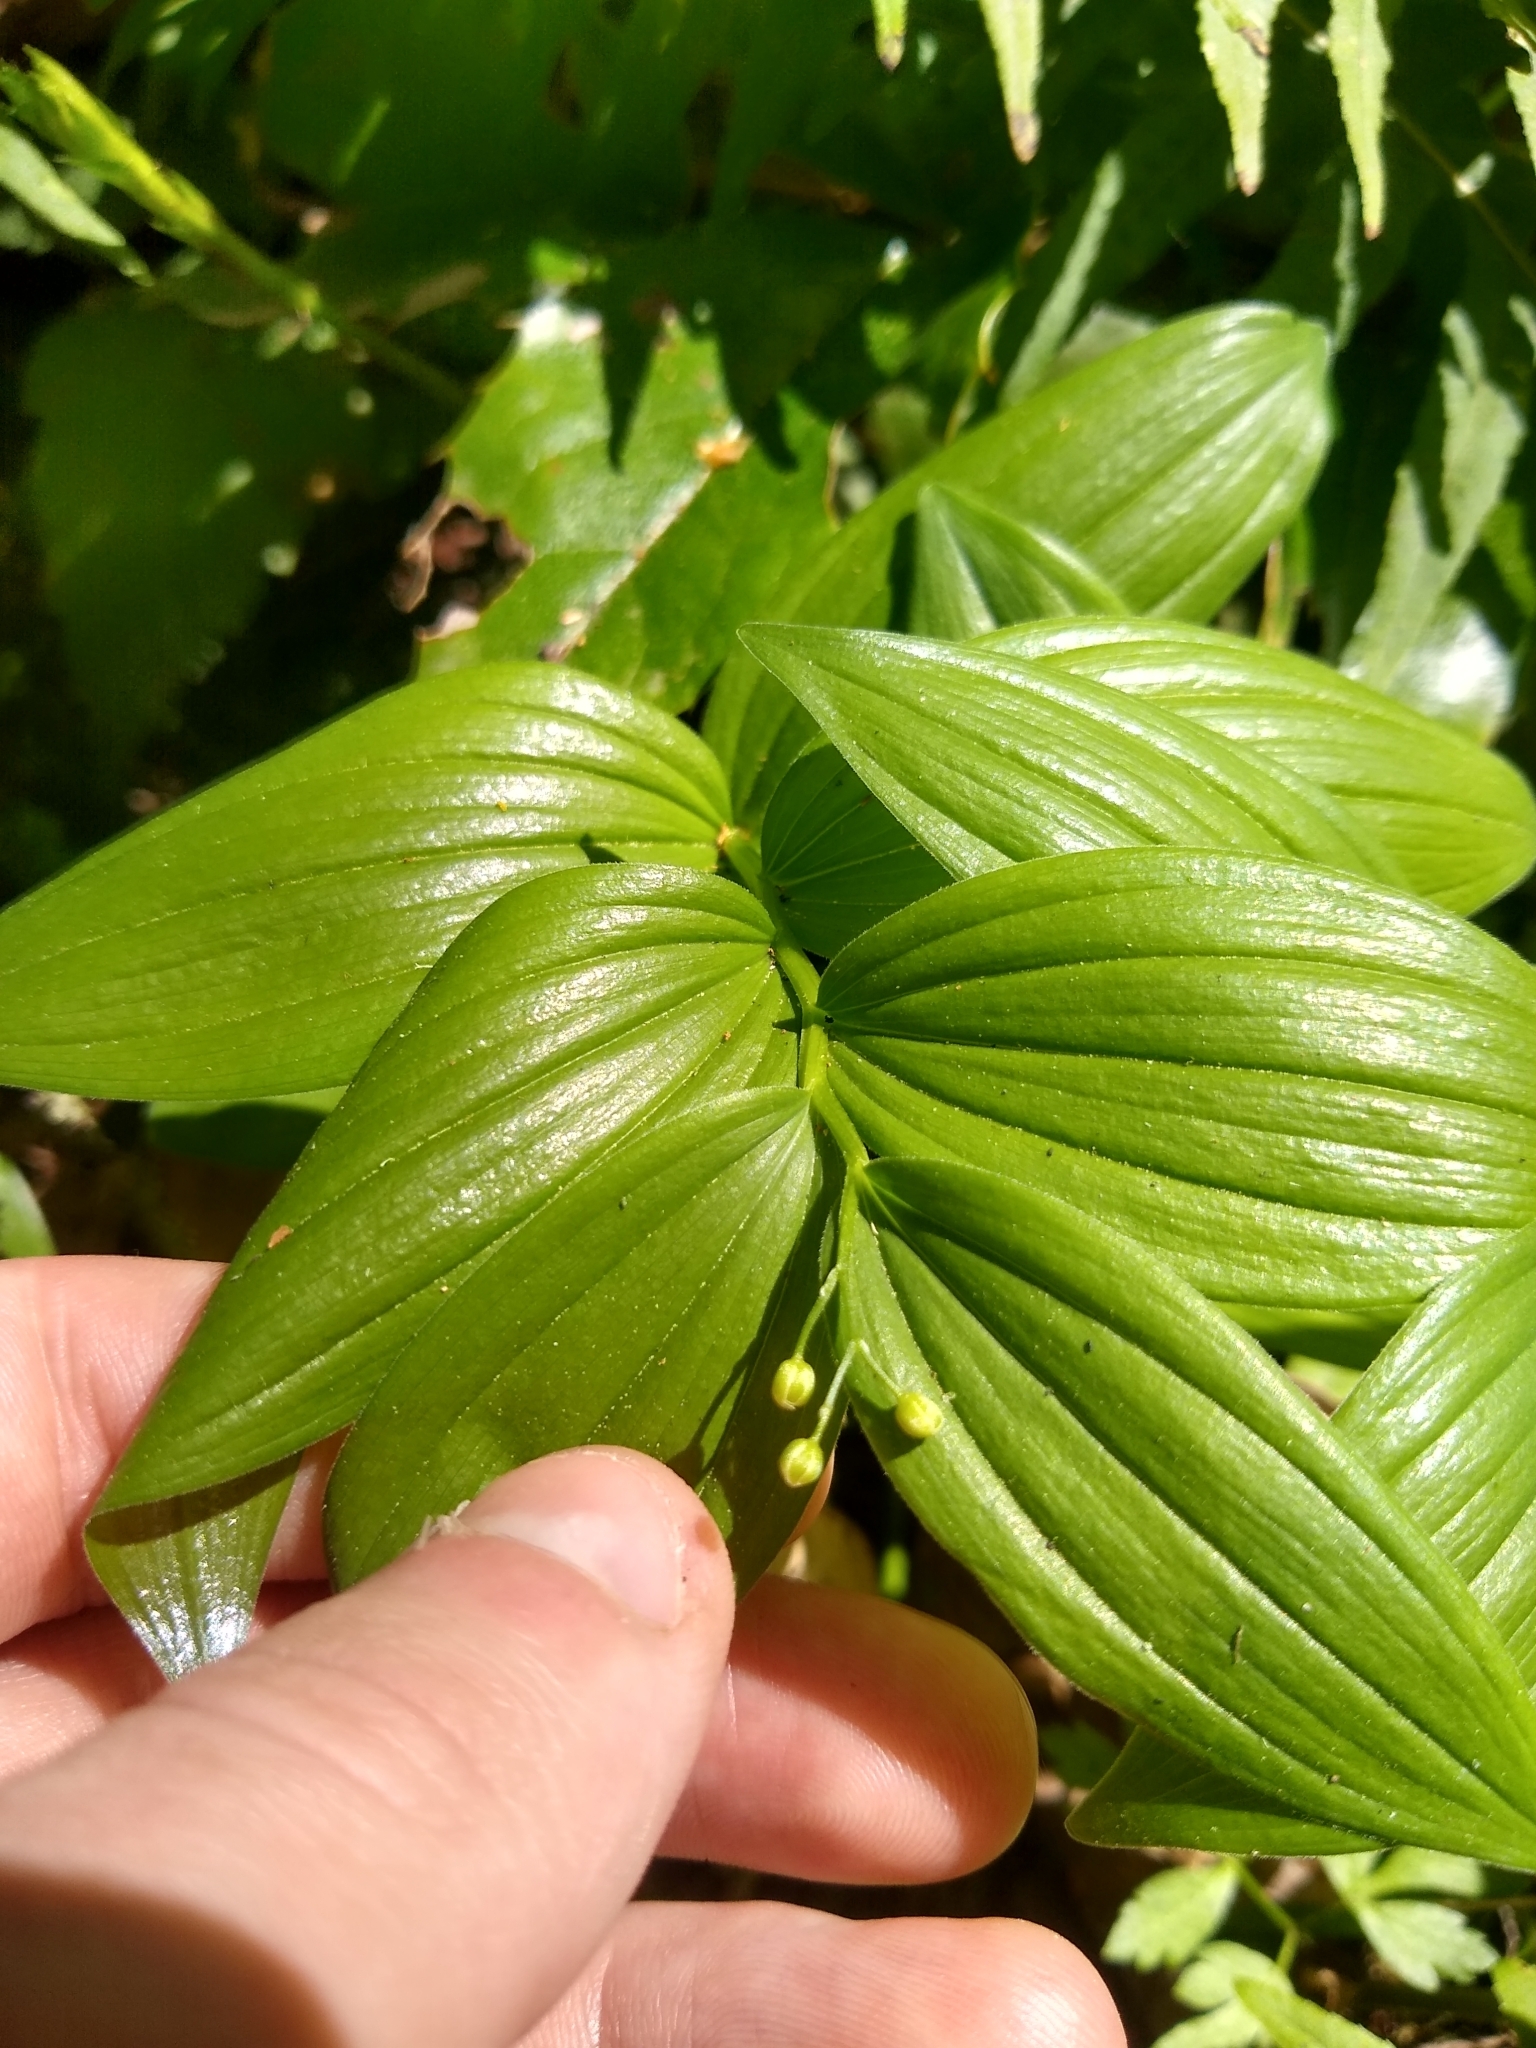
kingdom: Plantae
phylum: Tracheophyta
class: Liliopsida
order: Asparagales
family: Asparagaceae
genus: Maianthemum
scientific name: Maianthemum stellatum
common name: Little false solomon's seal
